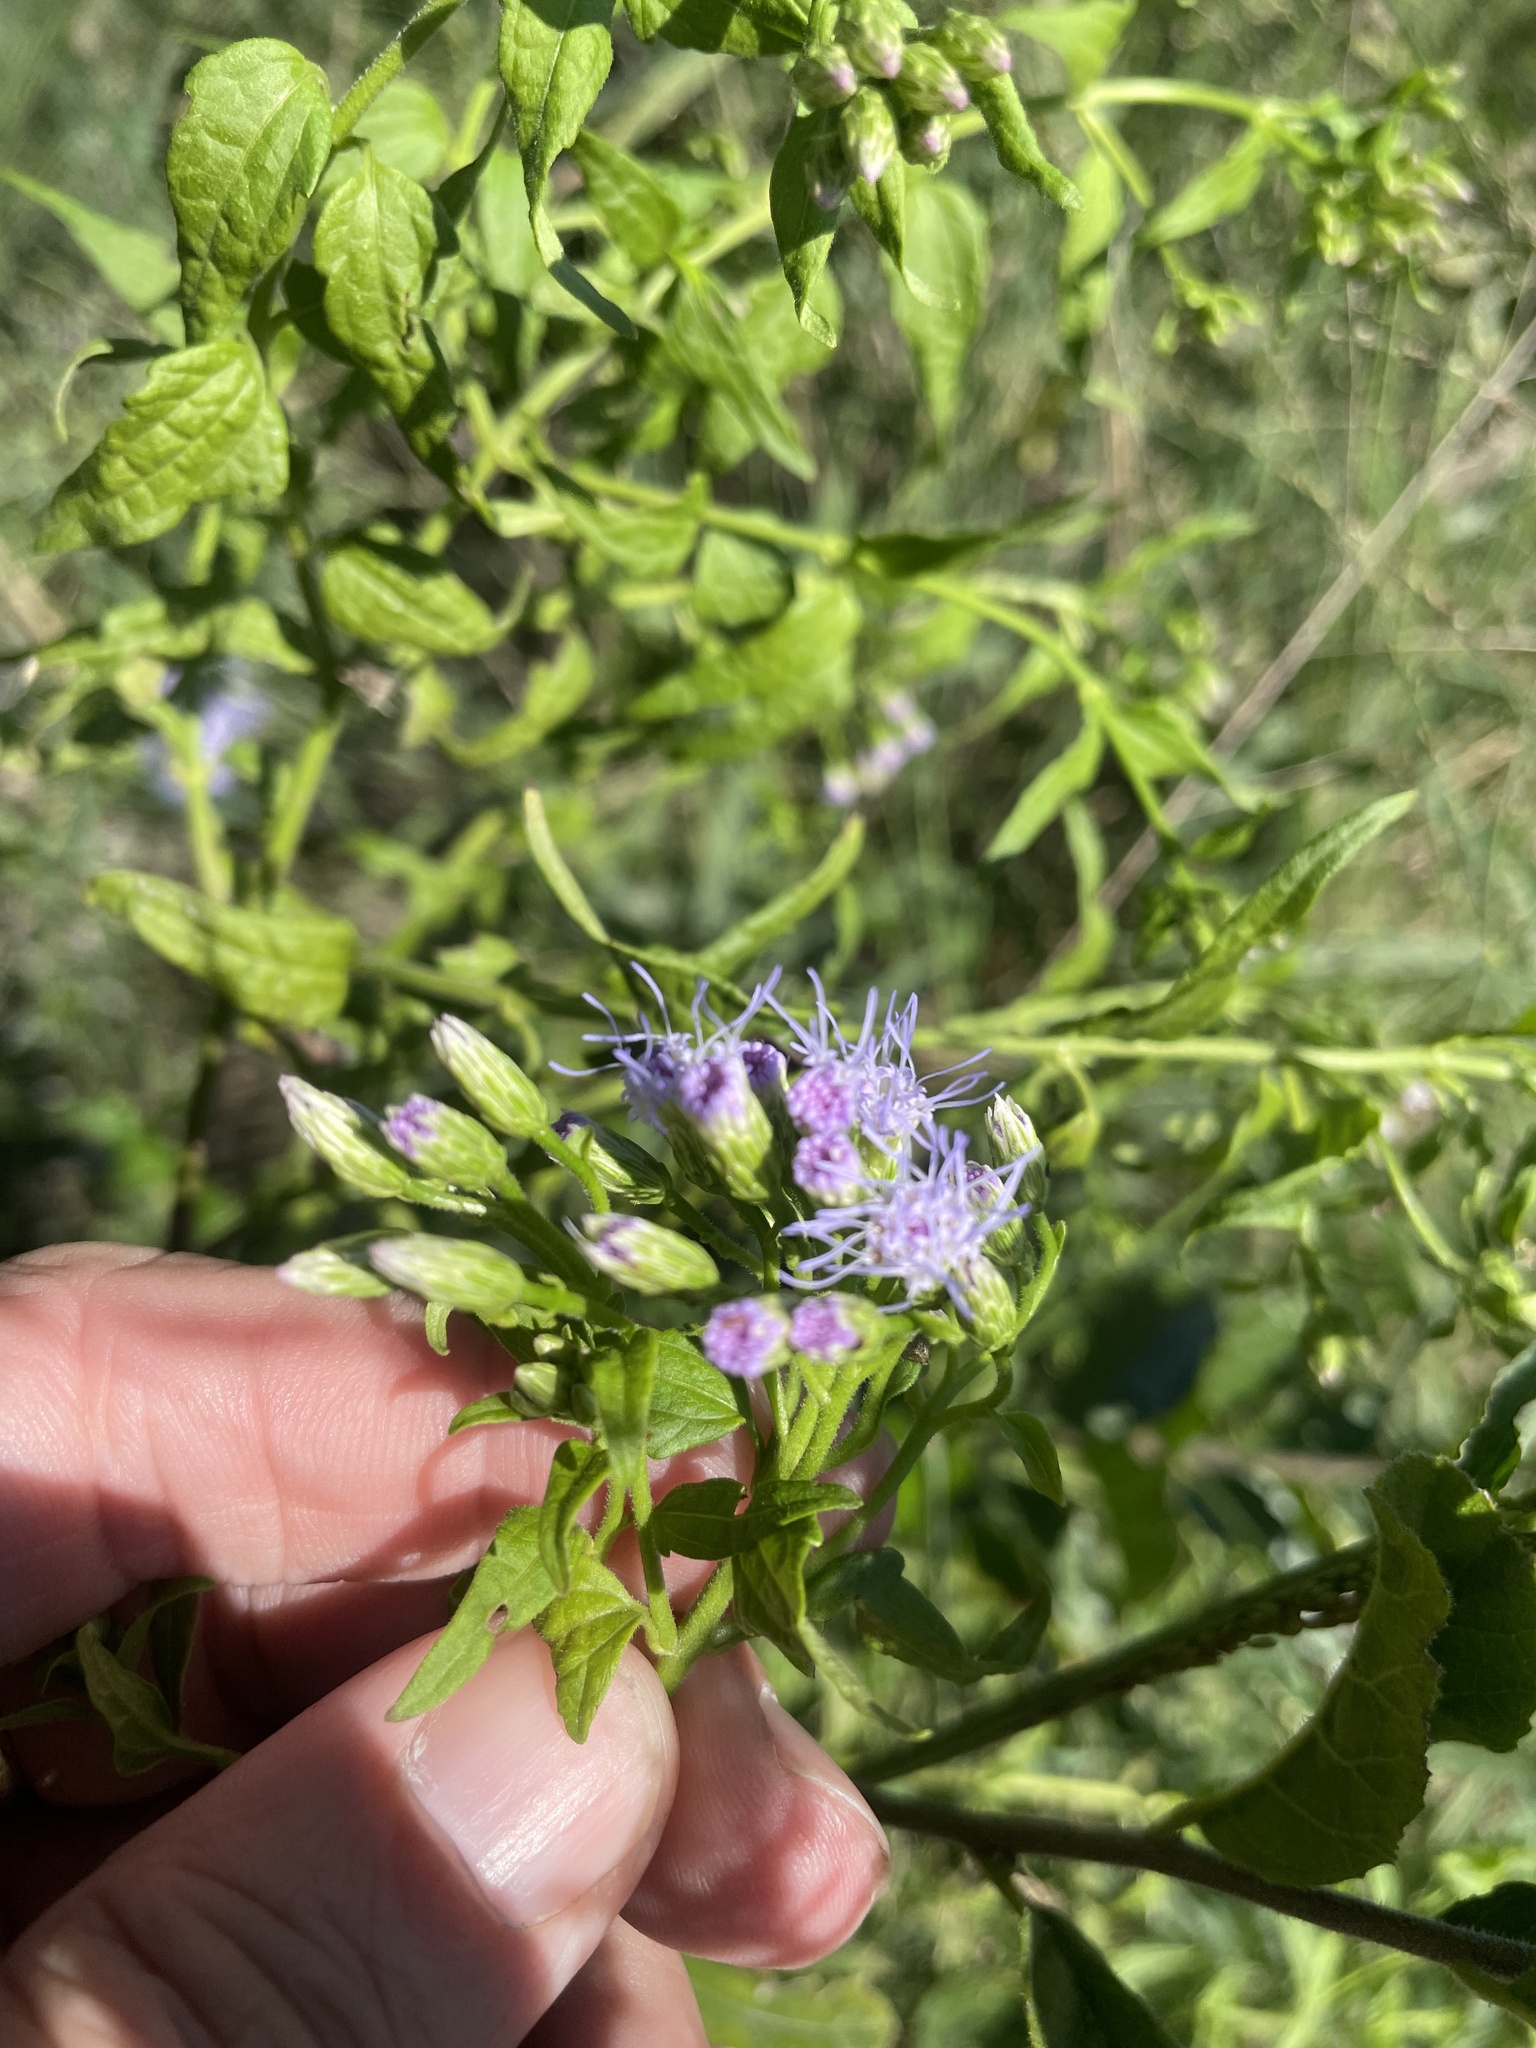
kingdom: Plantae
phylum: Tracheophyta
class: Magnoliopsida
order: Asterales
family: Asteraceae
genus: Chromolaena
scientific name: Chromolaena odorata
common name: Siamweed
